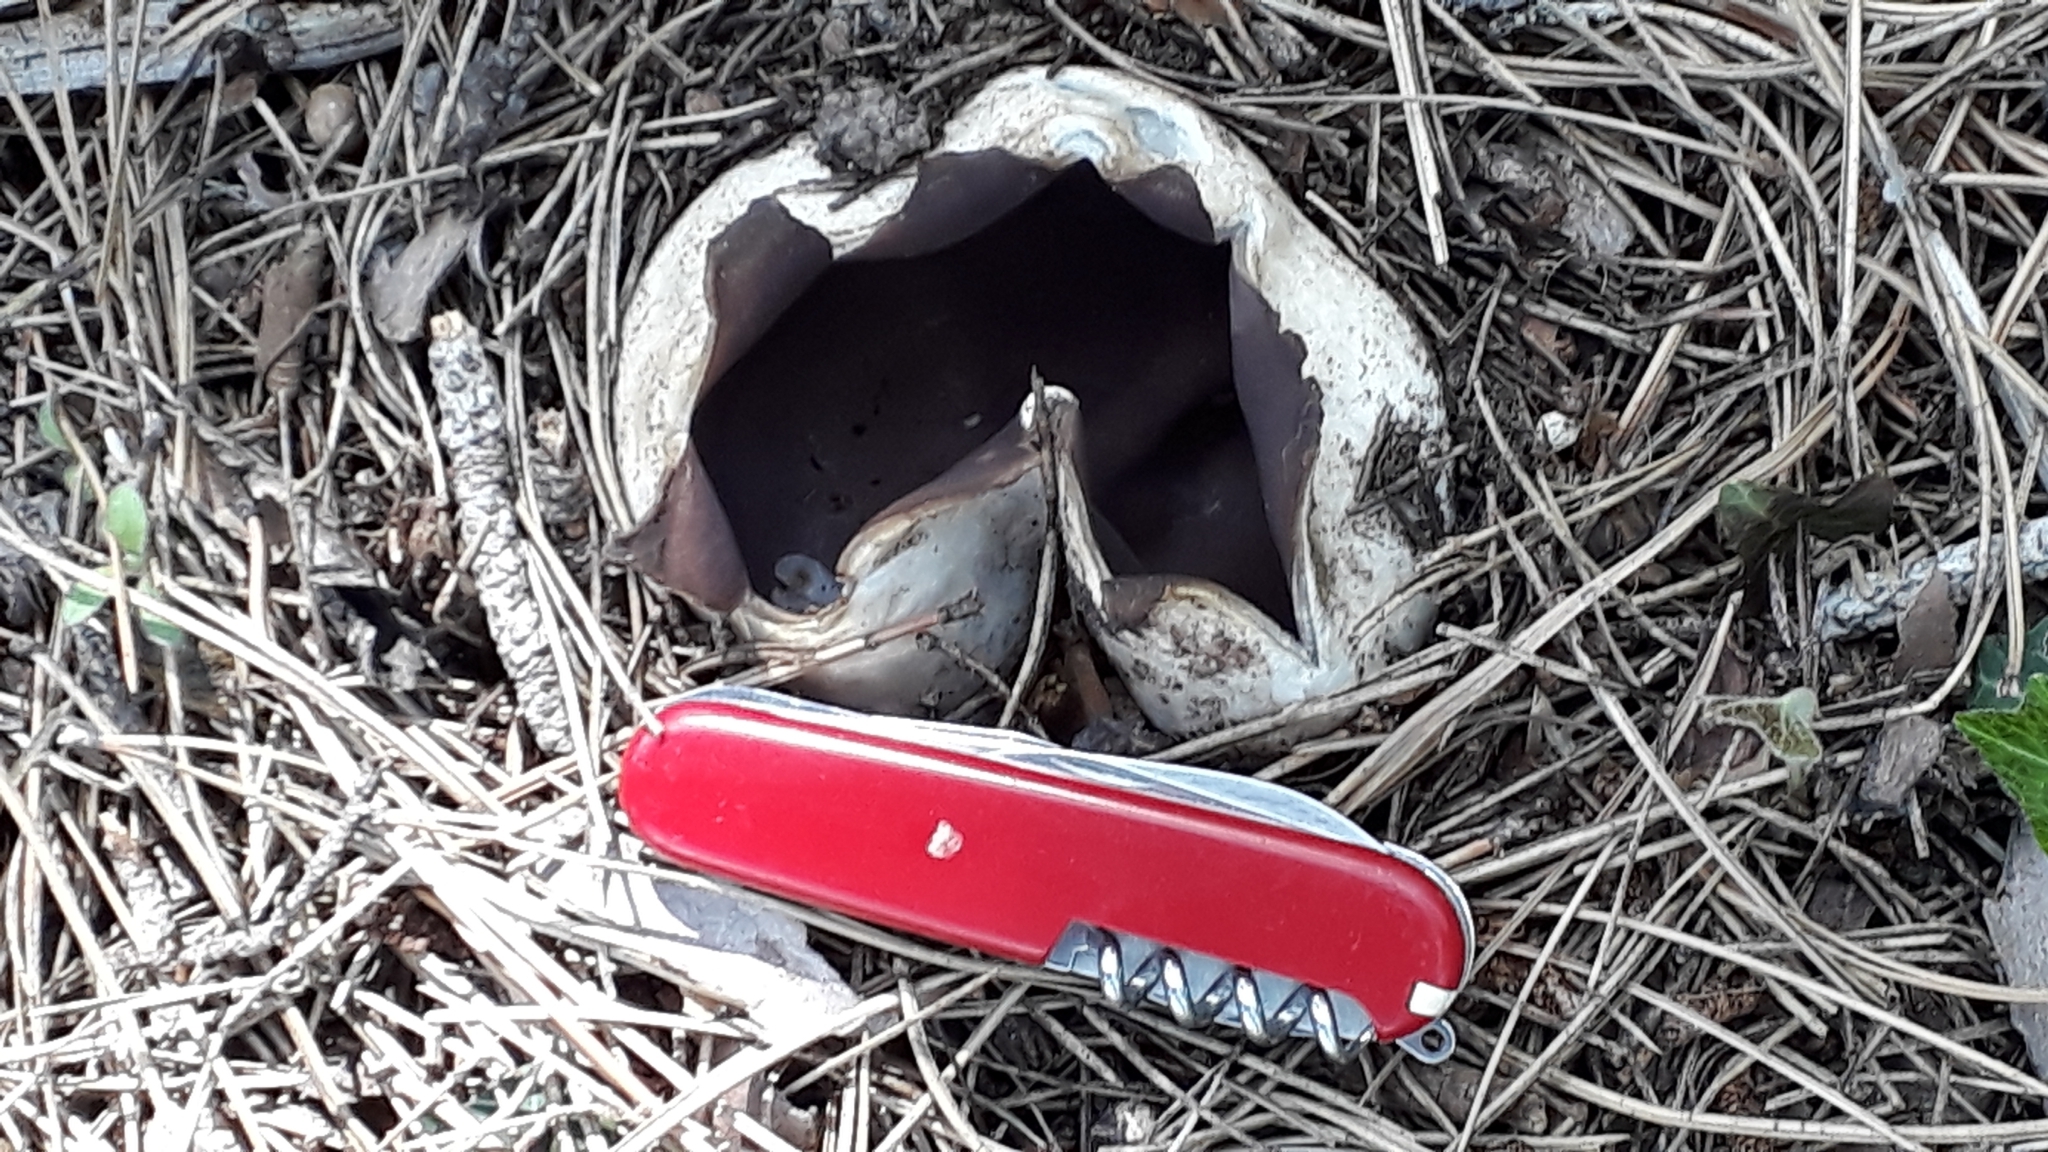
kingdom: Fungi
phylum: Ascomycota
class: Pezizomycetes
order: Pezizales
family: Pezizaceae
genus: Sarcosphaera
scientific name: Sarcosphaera coronaria
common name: Violet crowncup
